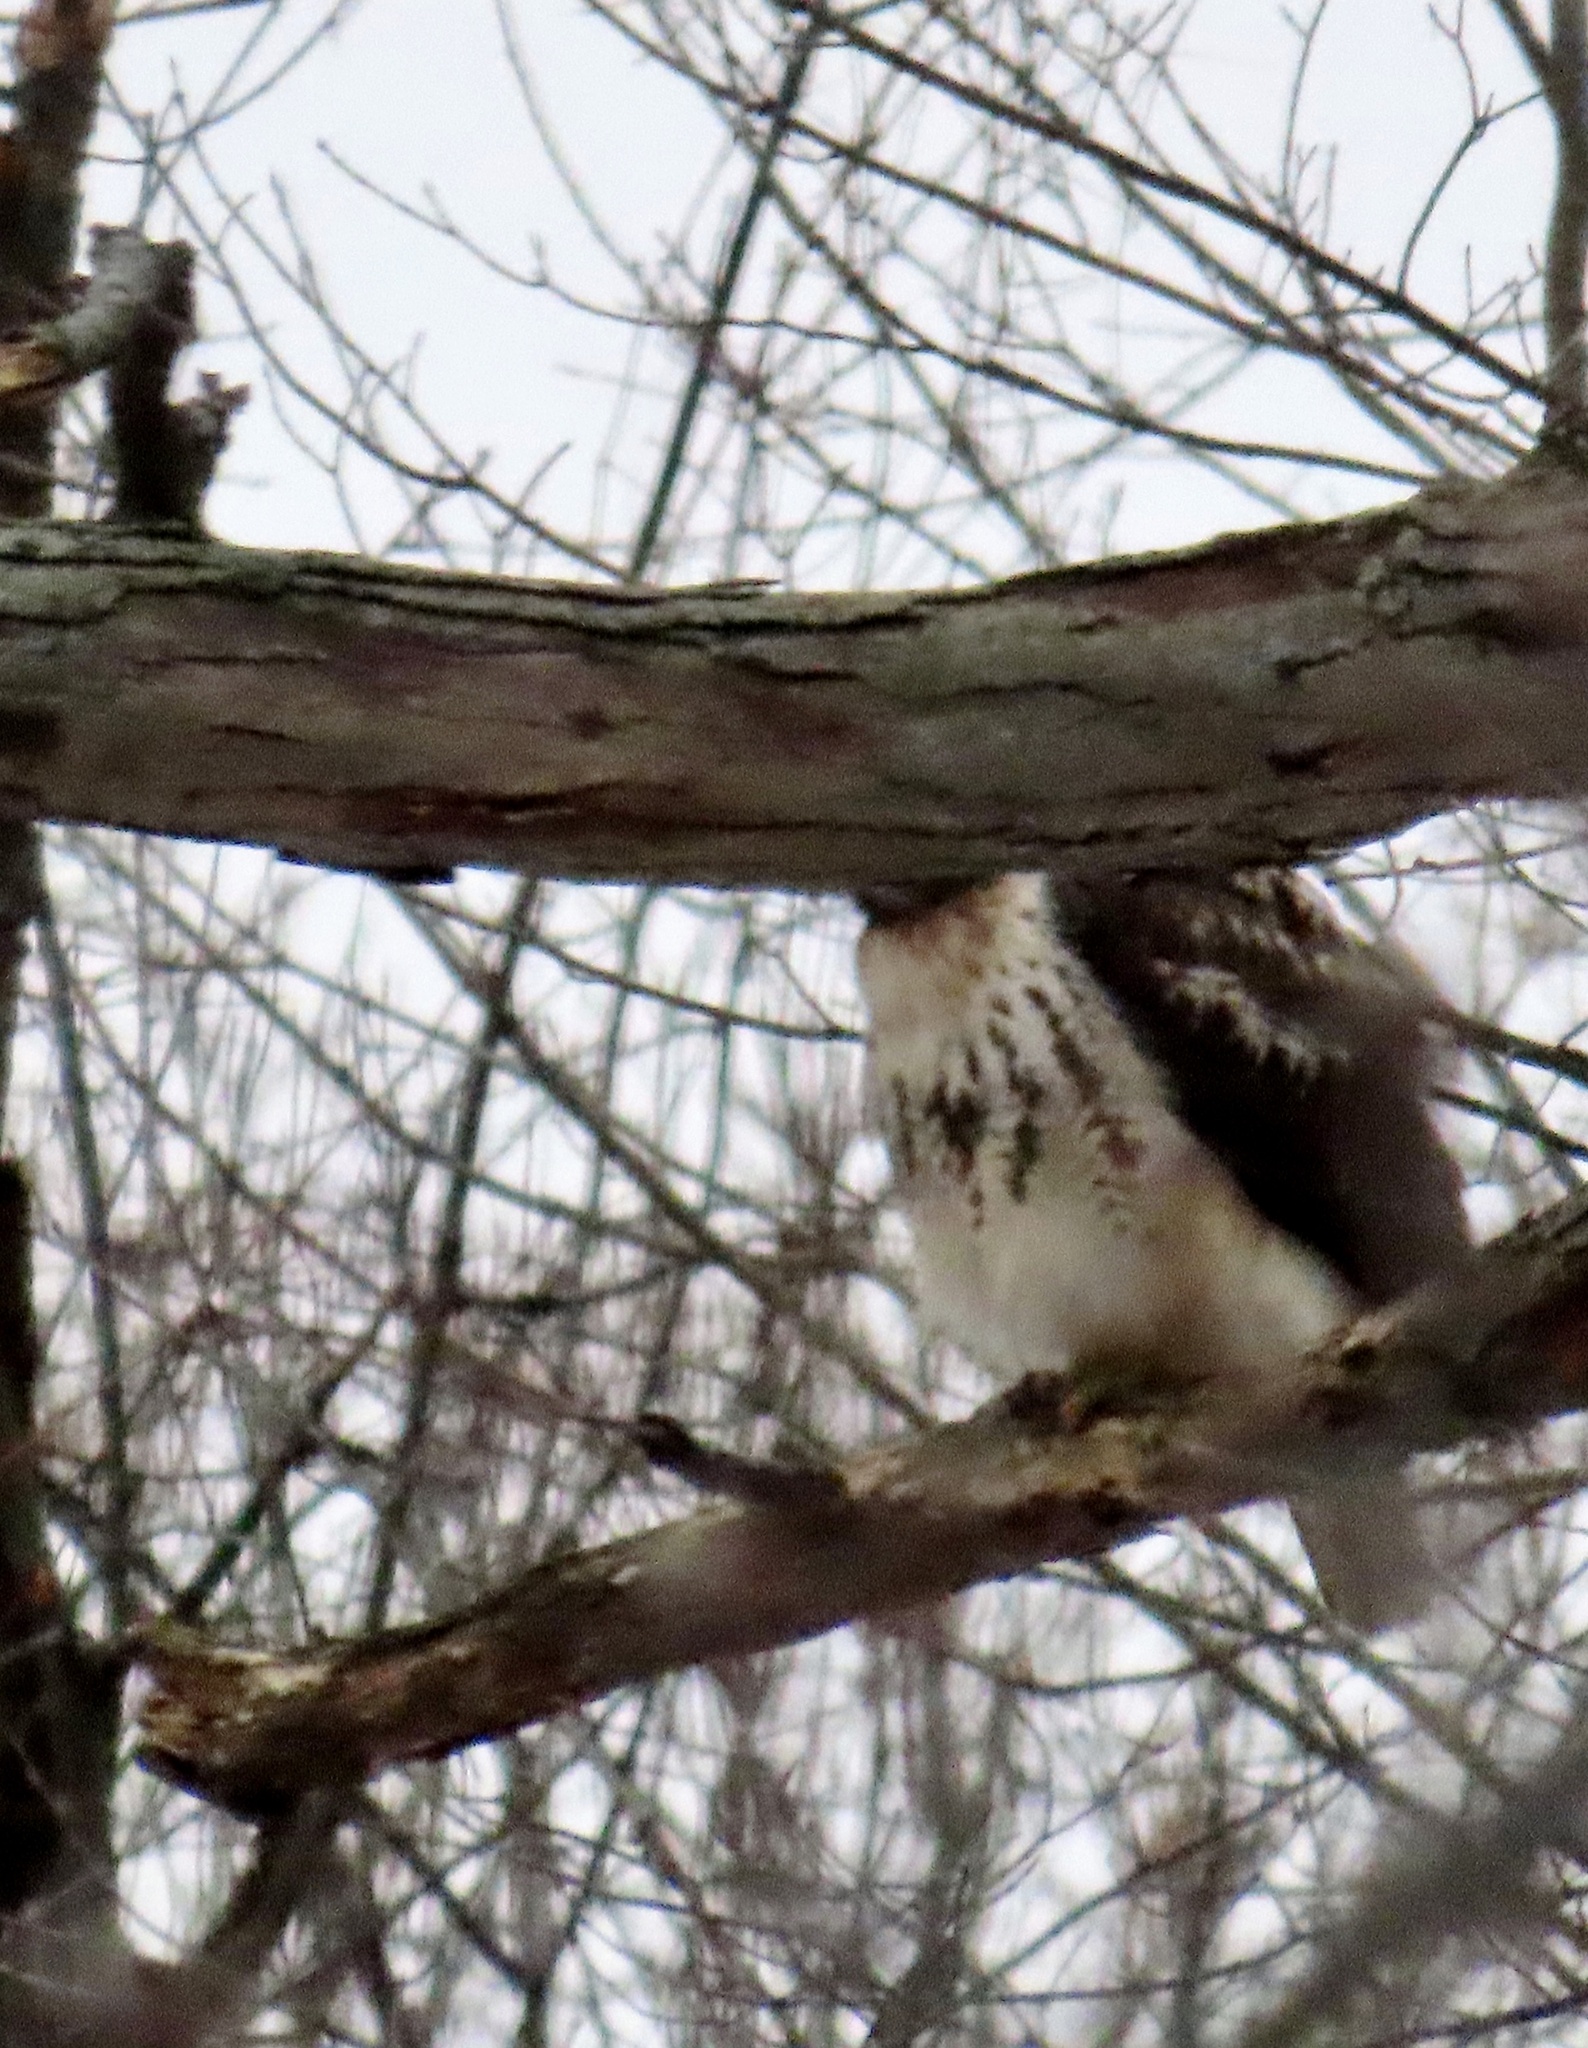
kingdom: Animalia
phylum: Chordata
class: Aves
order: Accipitriformes
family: Accipitridae
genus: Buteo
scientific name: Buteo jamaicensis
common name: Red-tailed hawk
